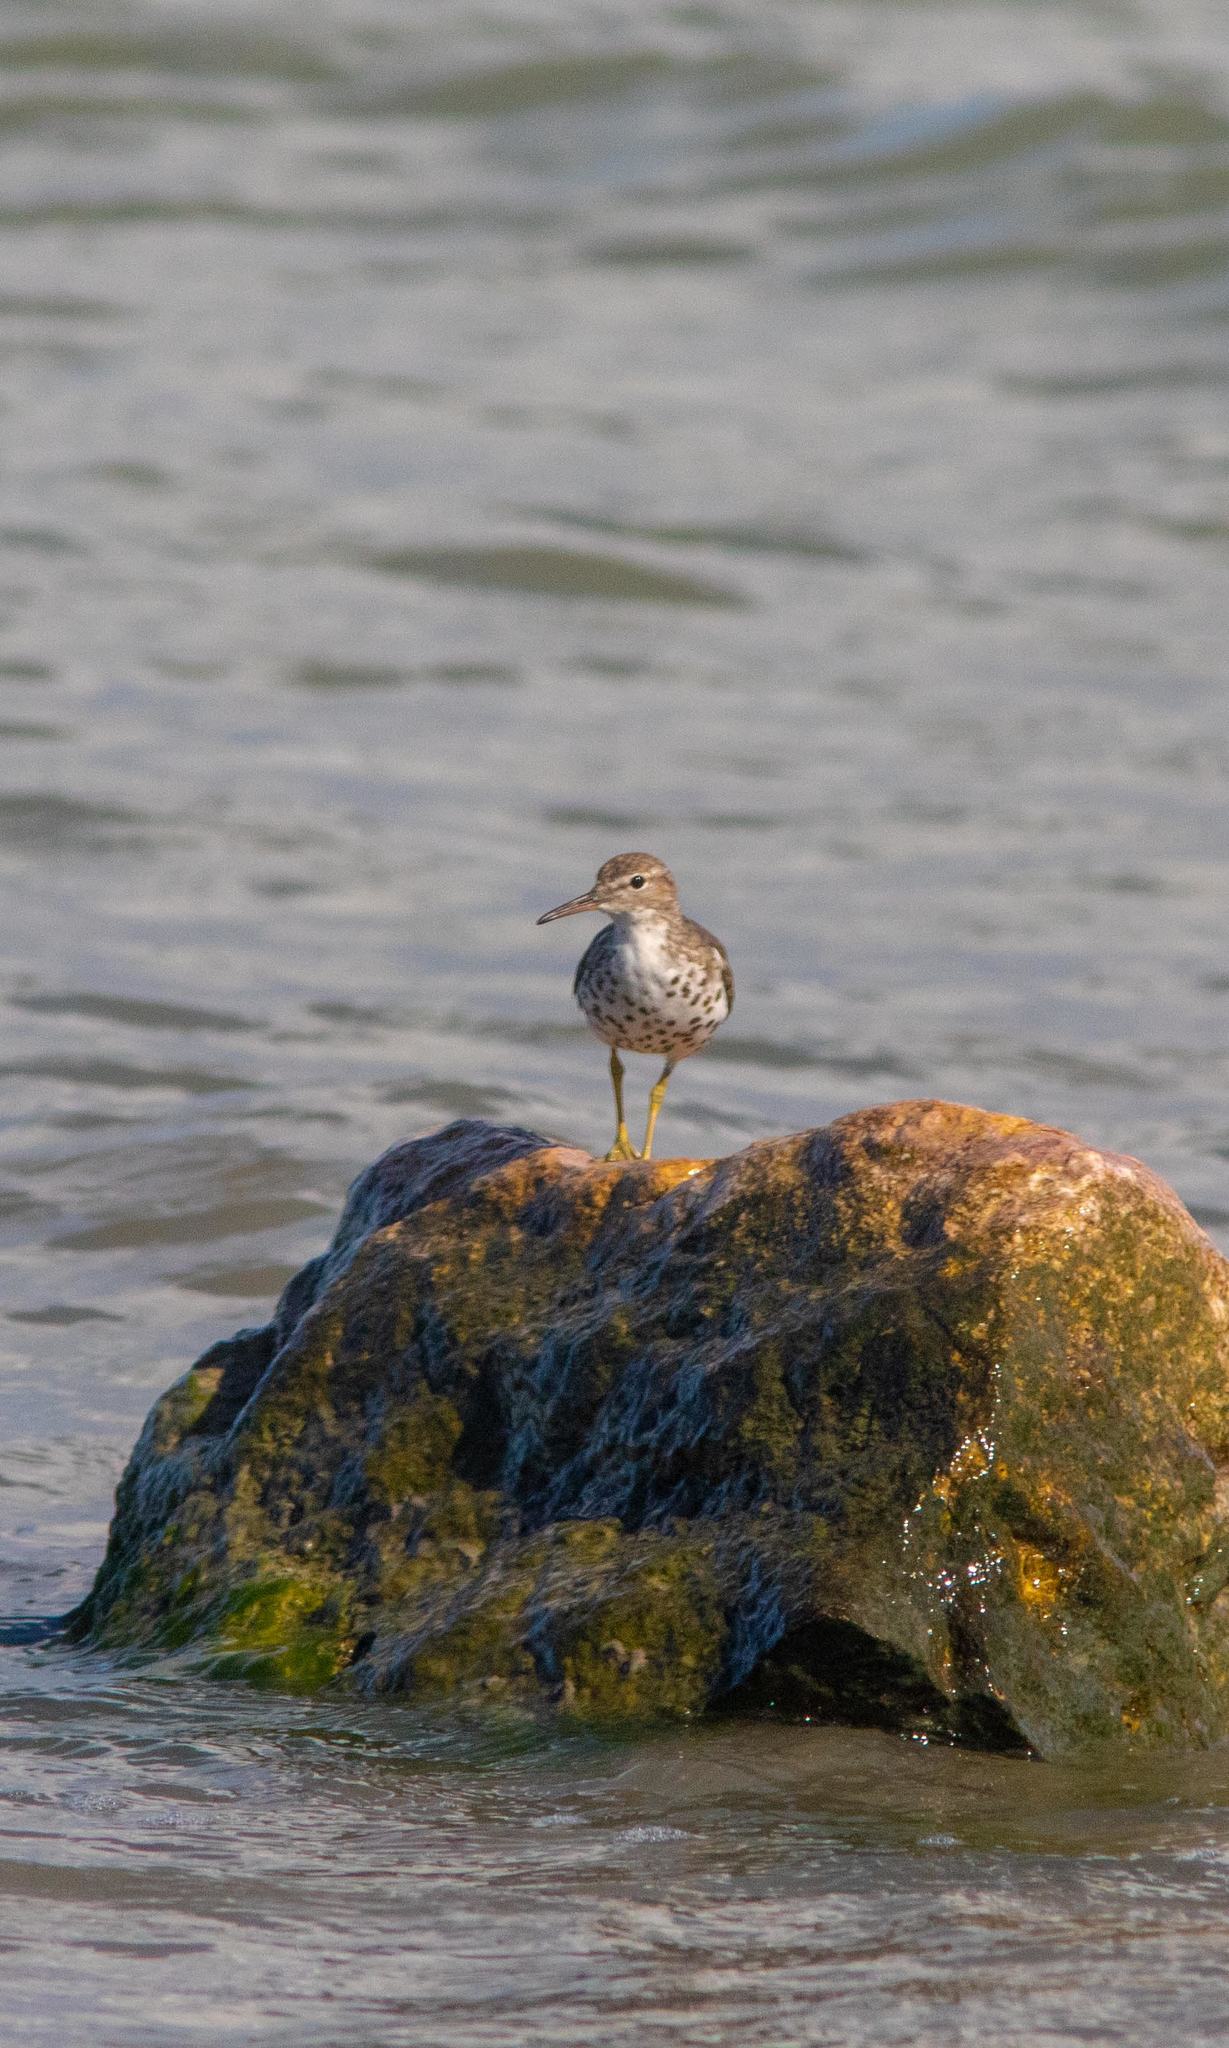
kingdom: Animalia
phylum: Chordata
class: Aves
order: Charadriiformes
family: Scolopacidae
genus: Actitis
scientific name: Actitis macularius
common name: Spotted sandpiper
